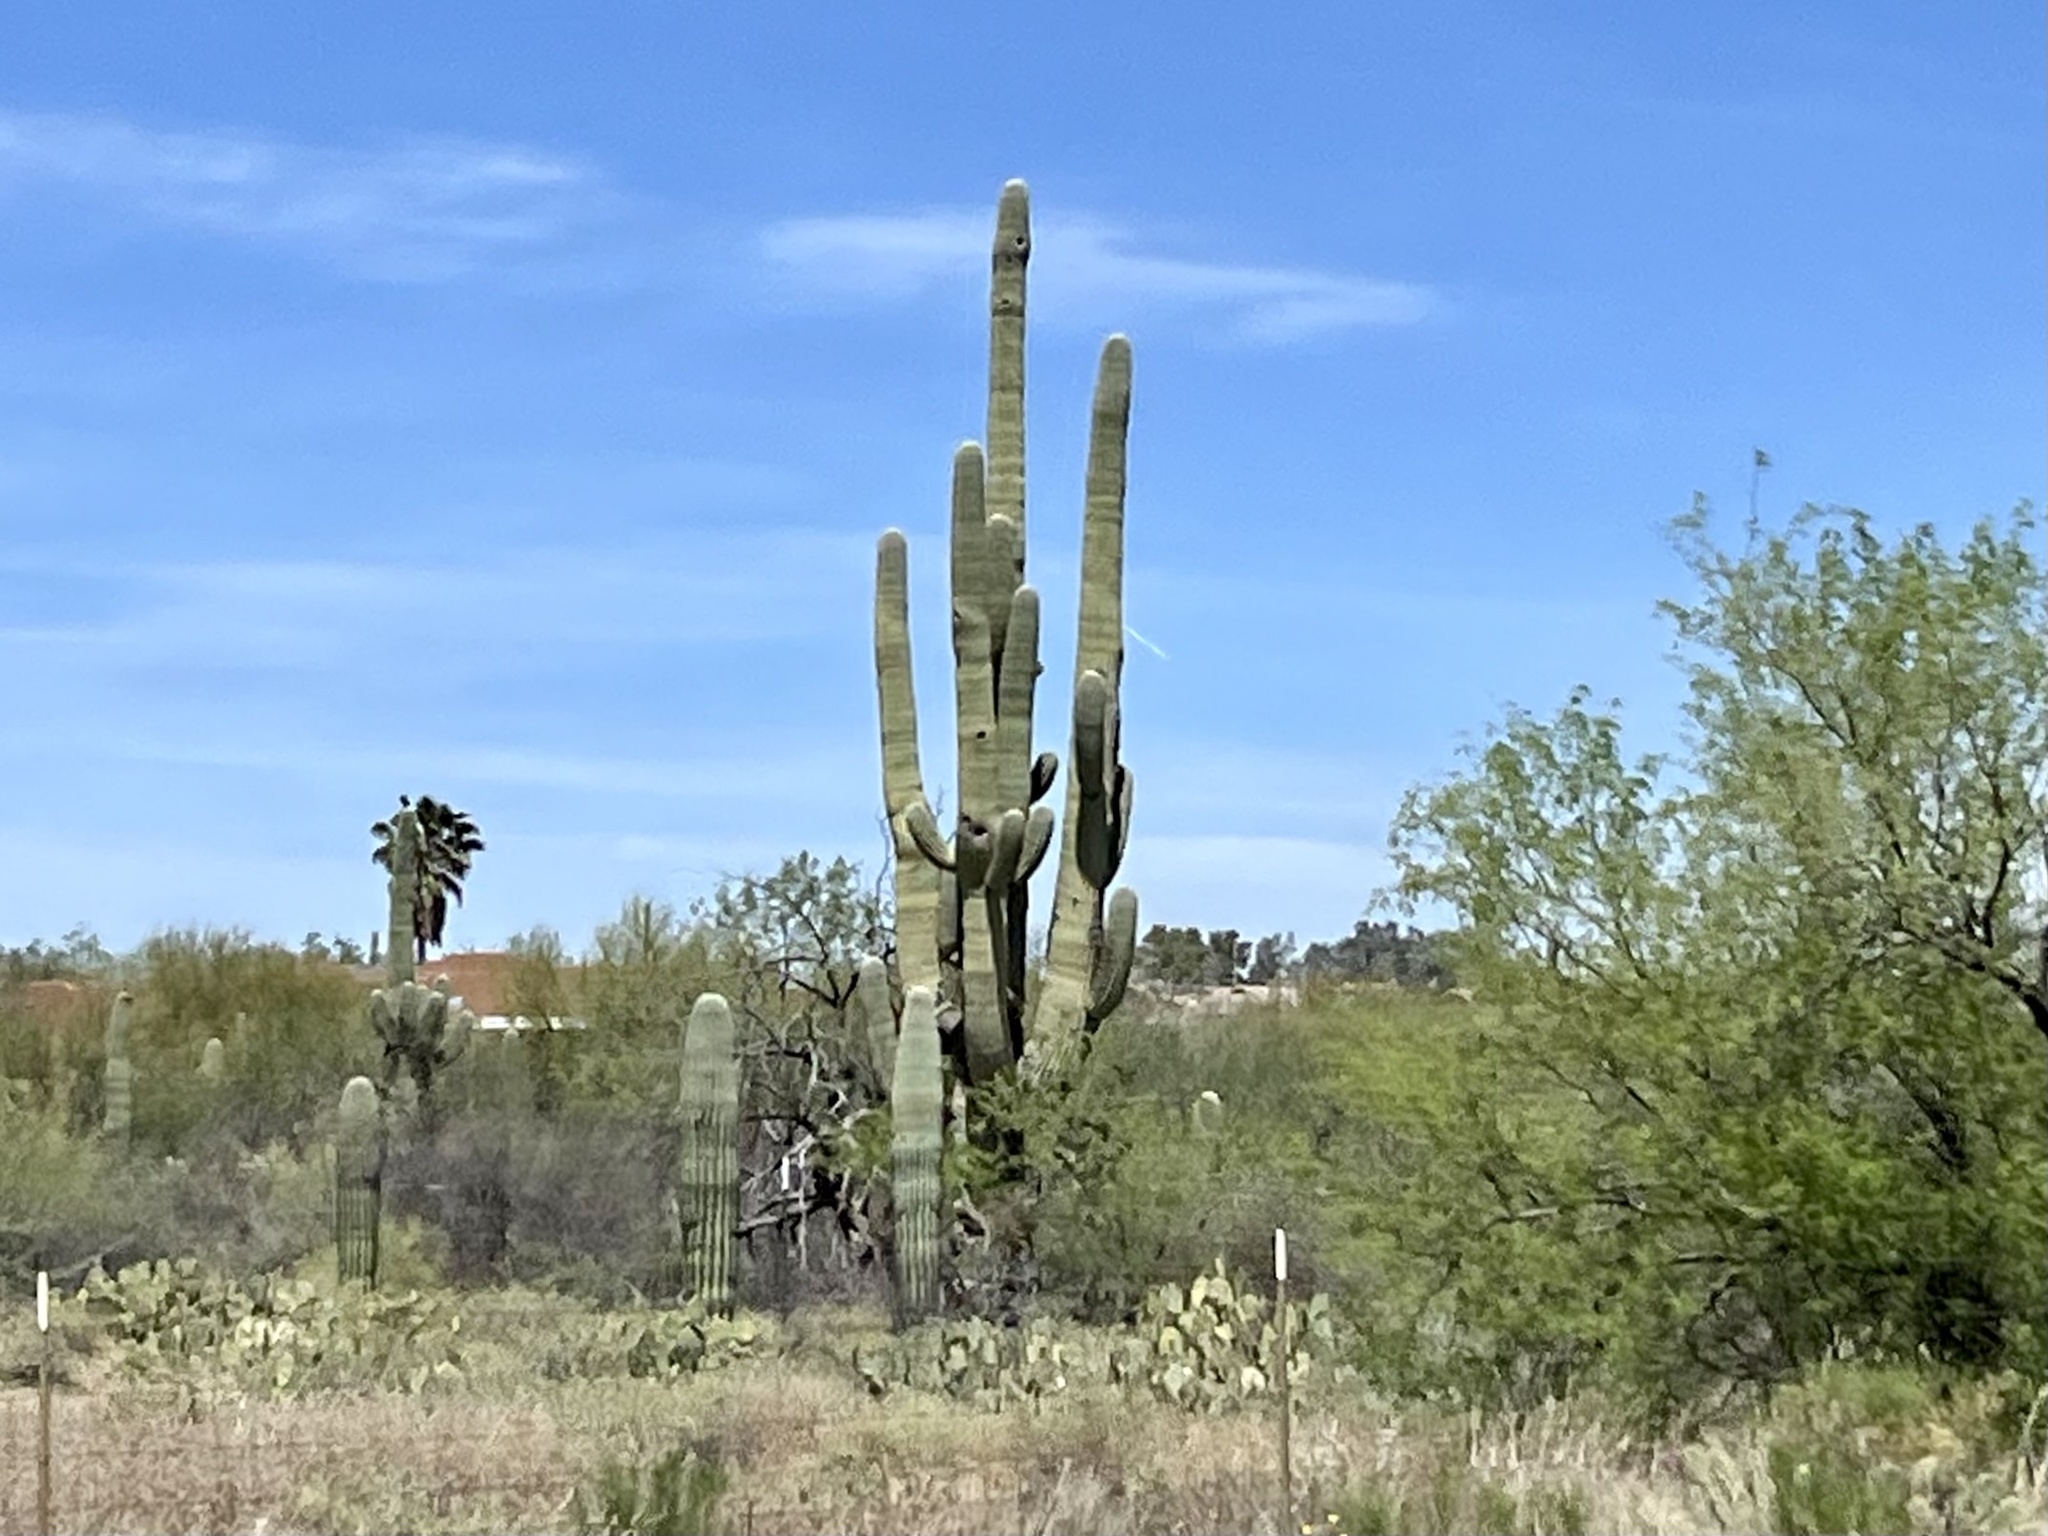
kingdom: Plantae
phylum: Tracheophyta
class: Magnoliopsida
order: Caryophyllales
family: Cactaceae
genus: Carnegiea
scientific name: Carnegiea gigantea
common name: Saguaro
